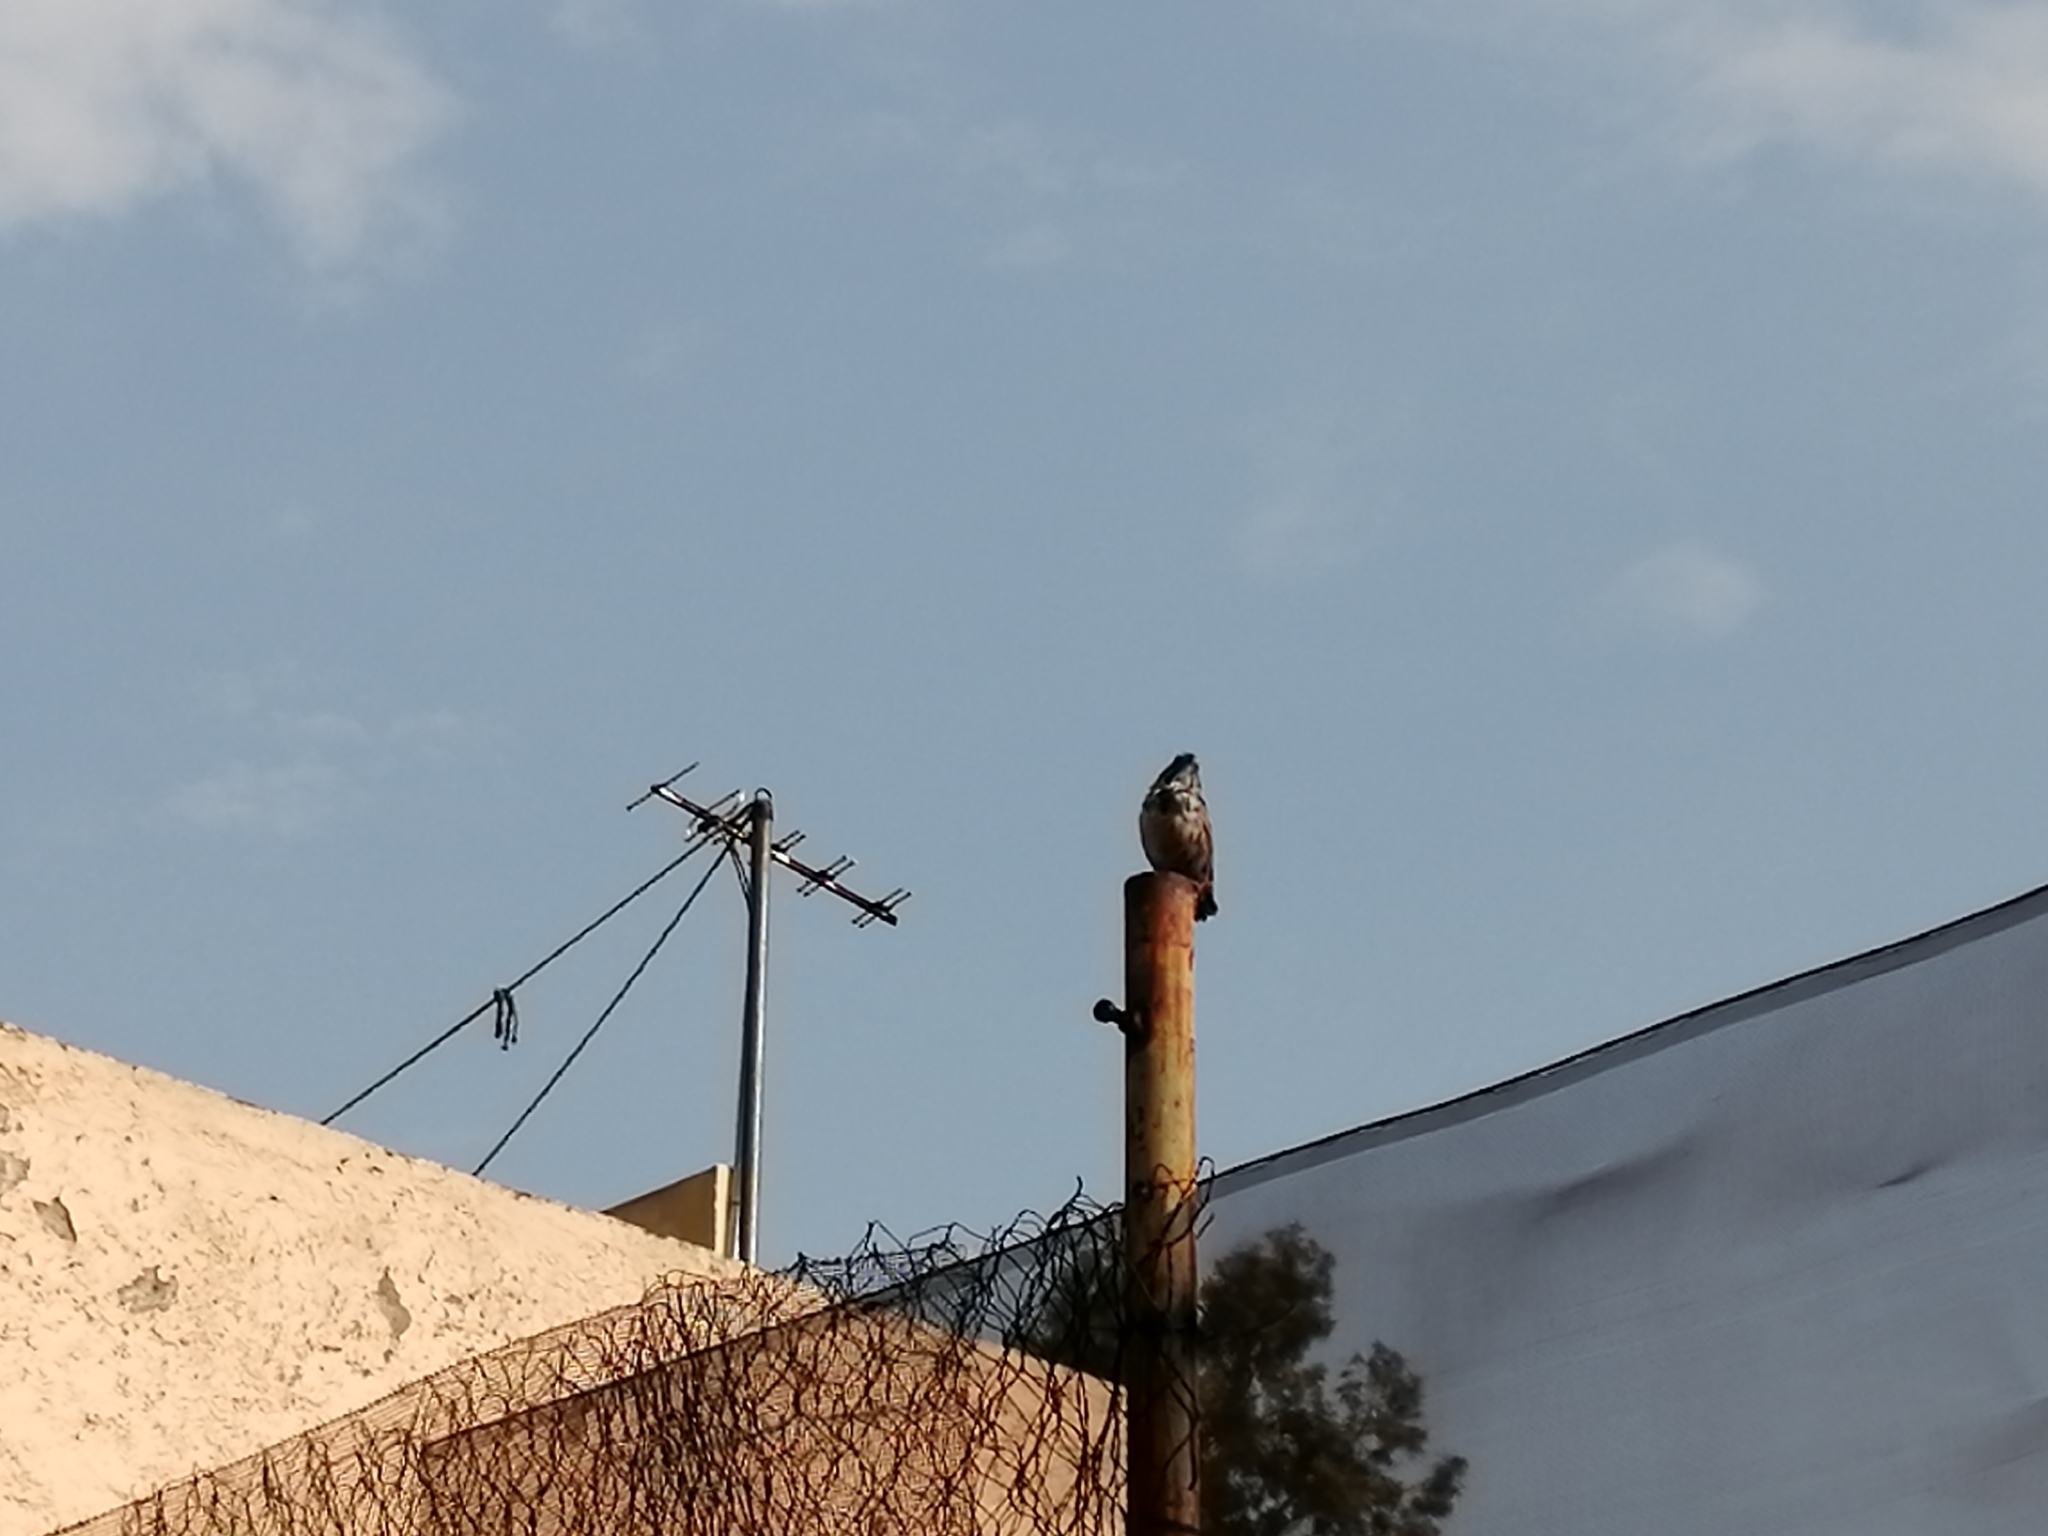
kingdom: Animalia
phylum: Chordata
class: Aves
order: Passeriformes
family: Passerellidae
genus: Melospiza
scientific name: Melospiza melodia
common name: Song sparrow
